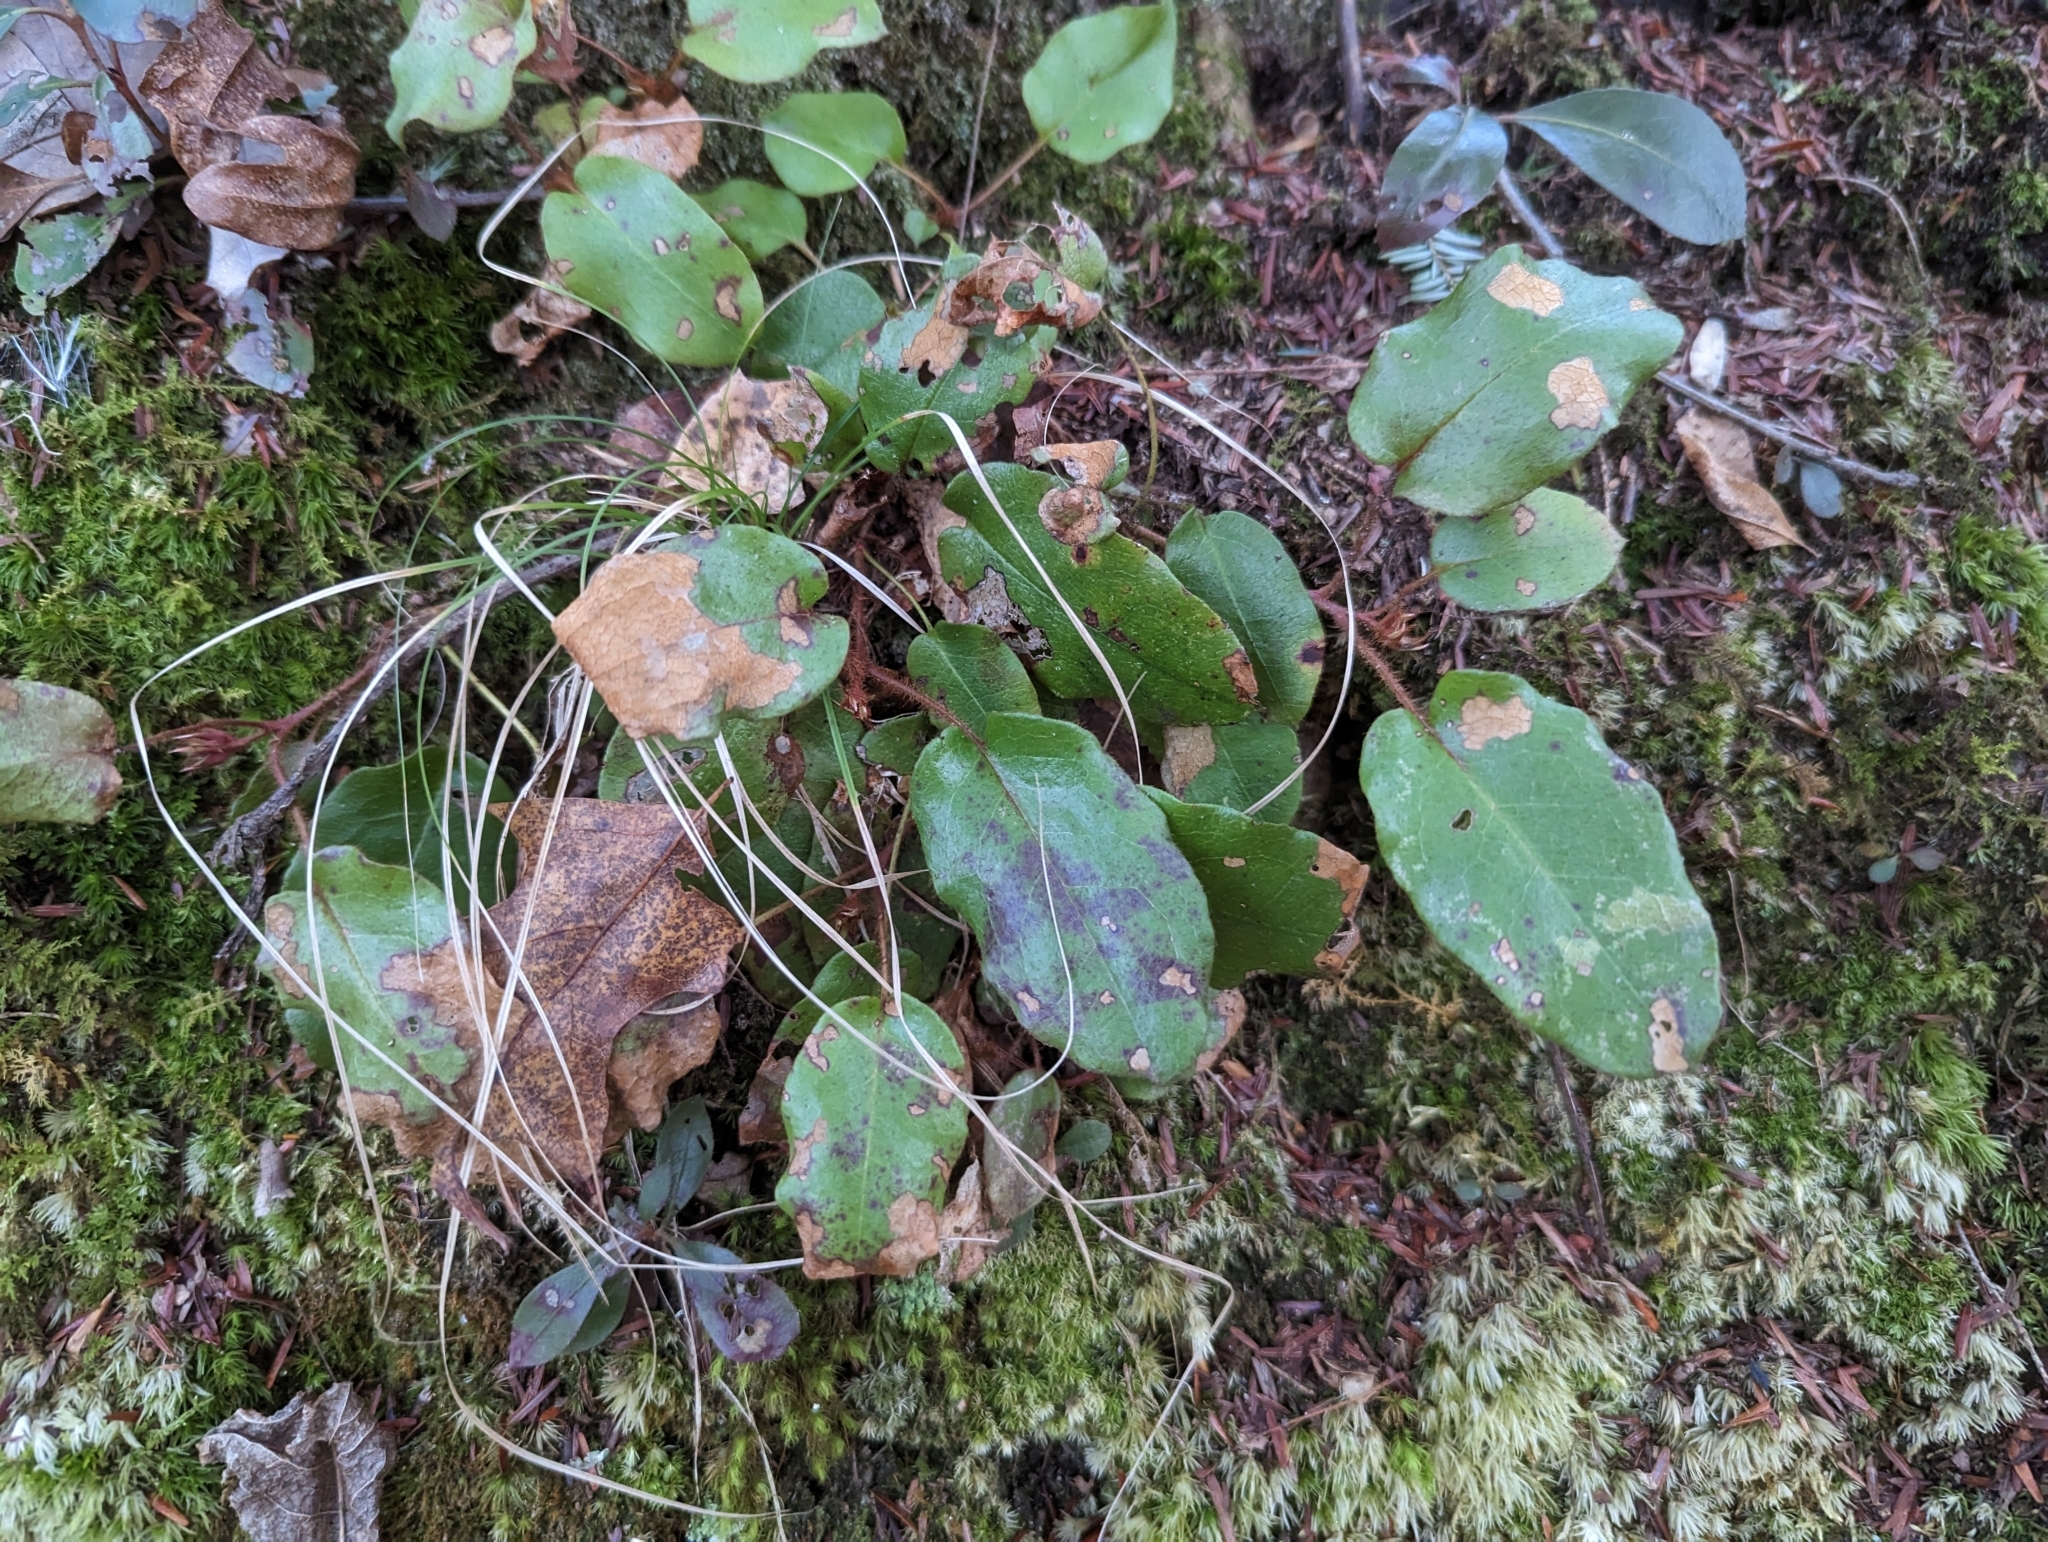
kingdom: Plantae
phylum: Tracheophyta
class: Magnoliopsida
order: Ericales
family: Ericaceae
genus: Epigaea
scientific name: Epigaea repens
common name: Gravelroot
